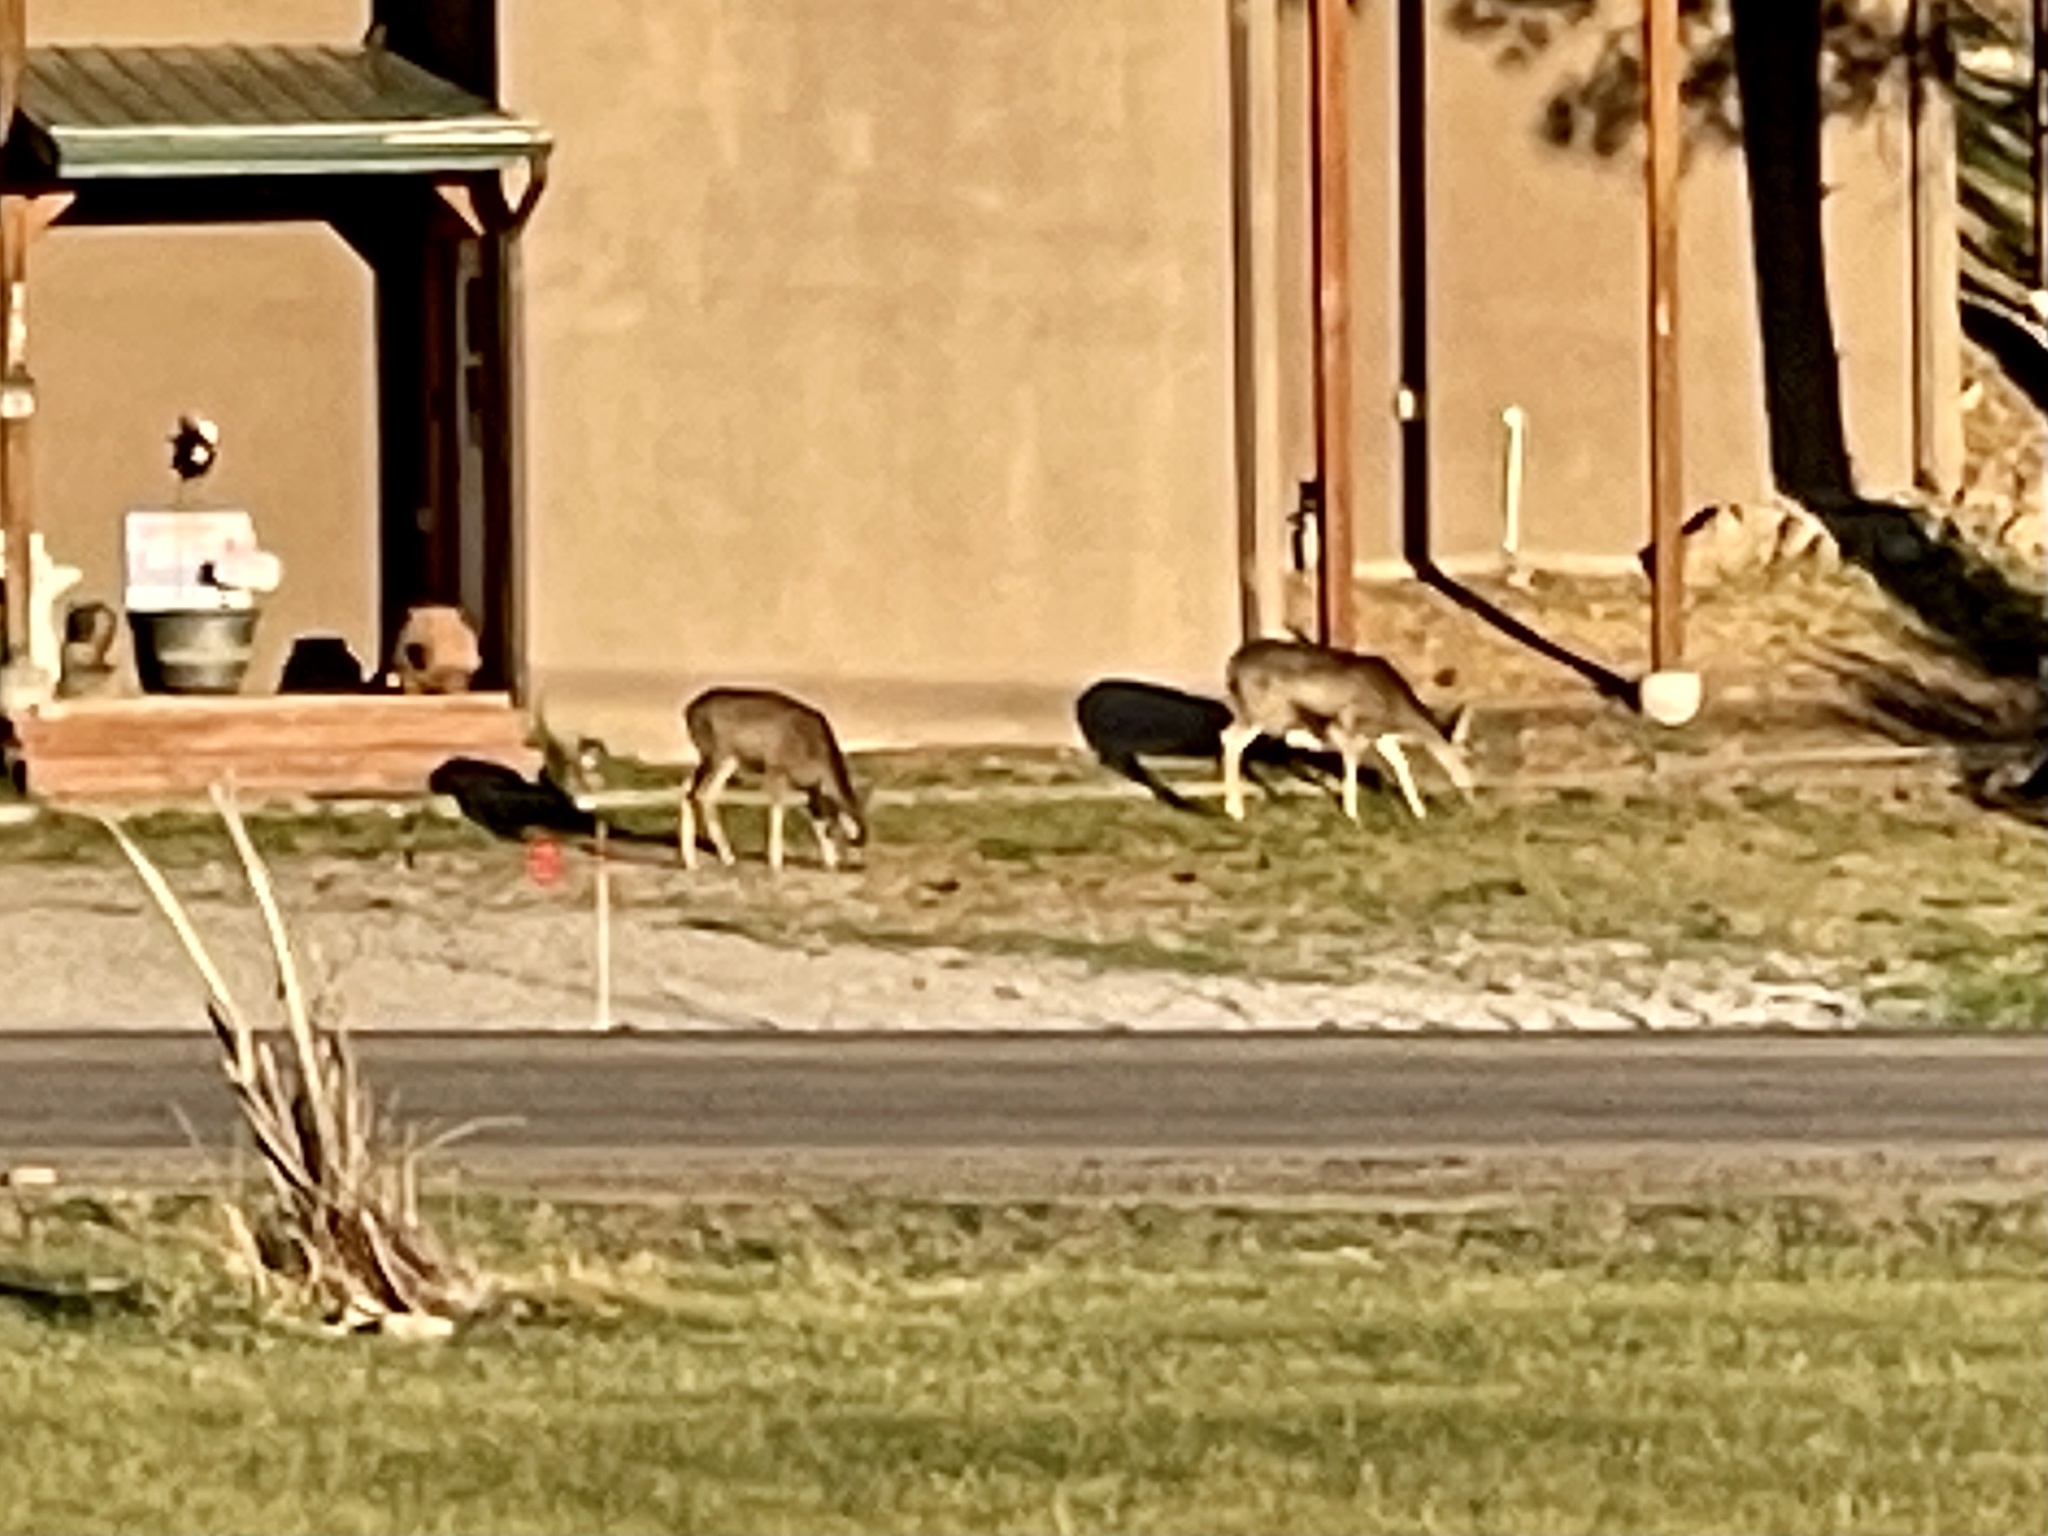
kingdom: Animalia
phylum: Chordata
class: Mammalia
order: Artiodactyla
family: Cervidae
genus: Odocoileus
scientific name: Odocoileus hemionus
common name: Mule deer
